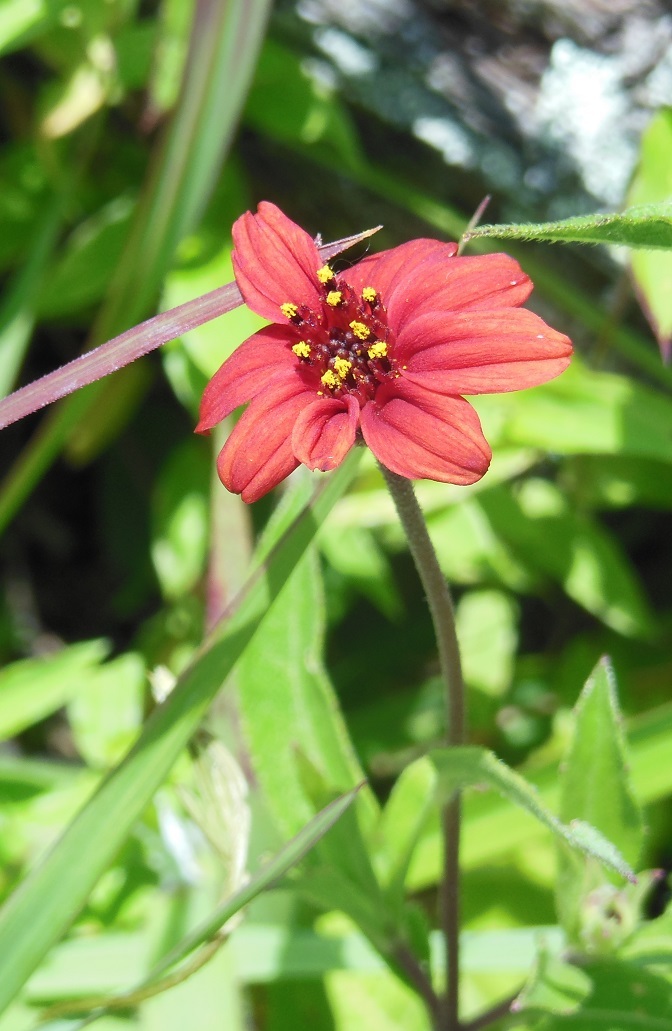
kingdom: Plantae
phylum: Tracheophyta
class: Magnoliopsida
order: Asterales
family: Asteraceae
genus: Wedelia
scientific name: Wedelia purpurea
